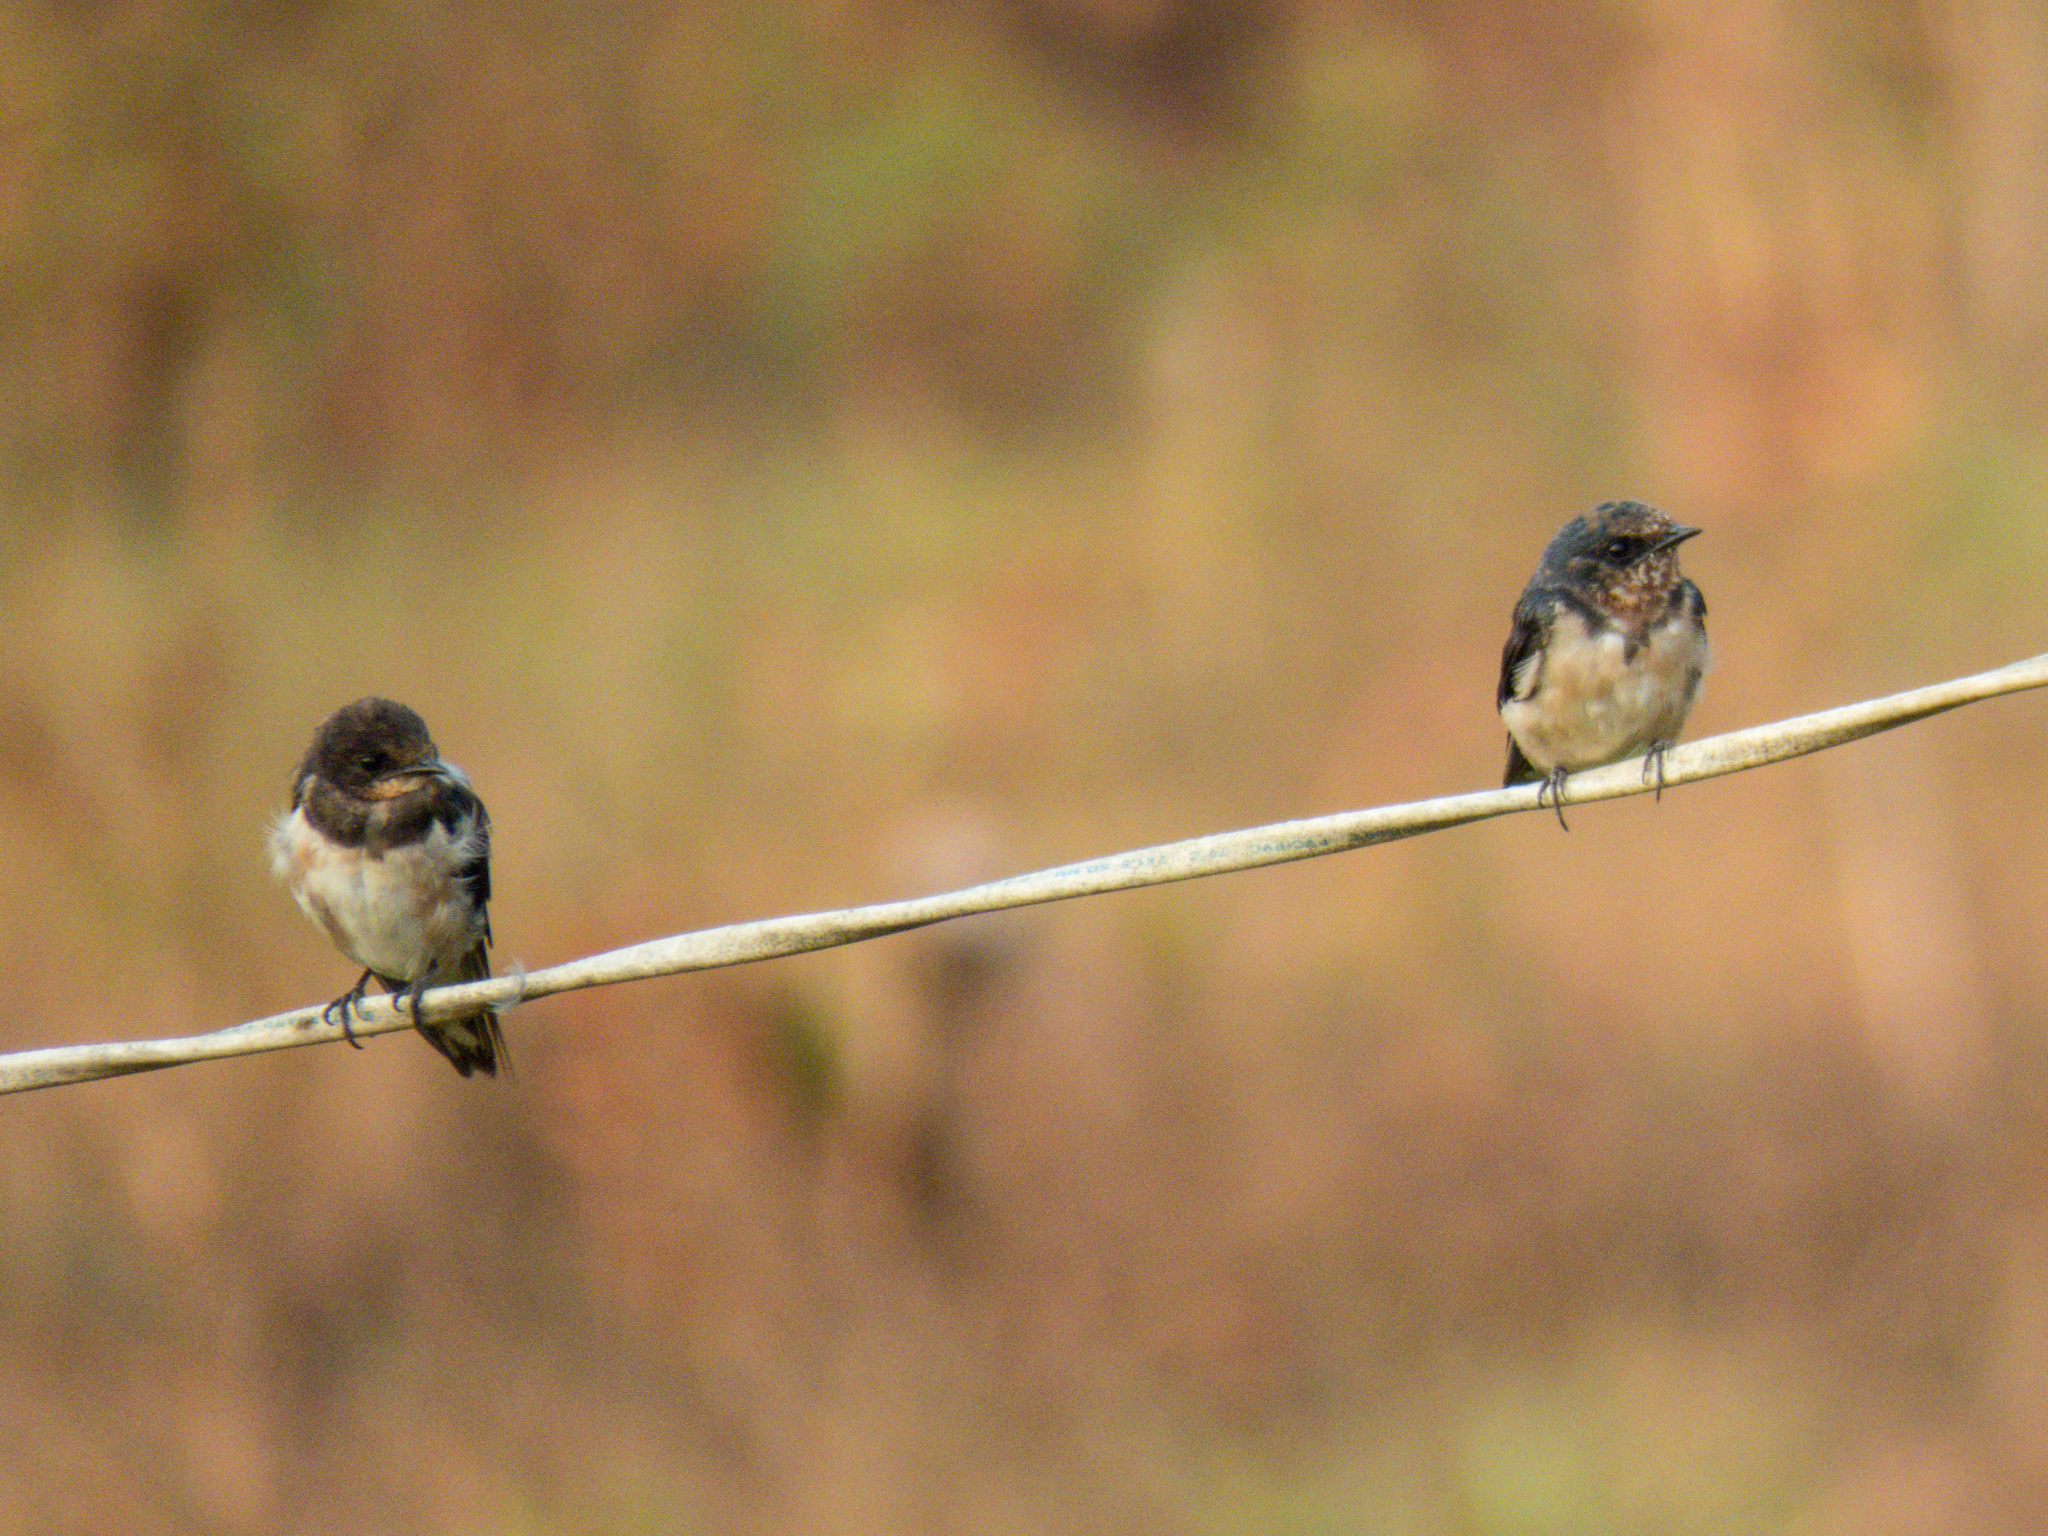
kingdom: Animalia
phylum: Chordata
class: Aves
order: Passeriformes
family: Hirundinidae
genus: Hirundo
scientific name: Hirundo rustica
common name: Barn swallow
